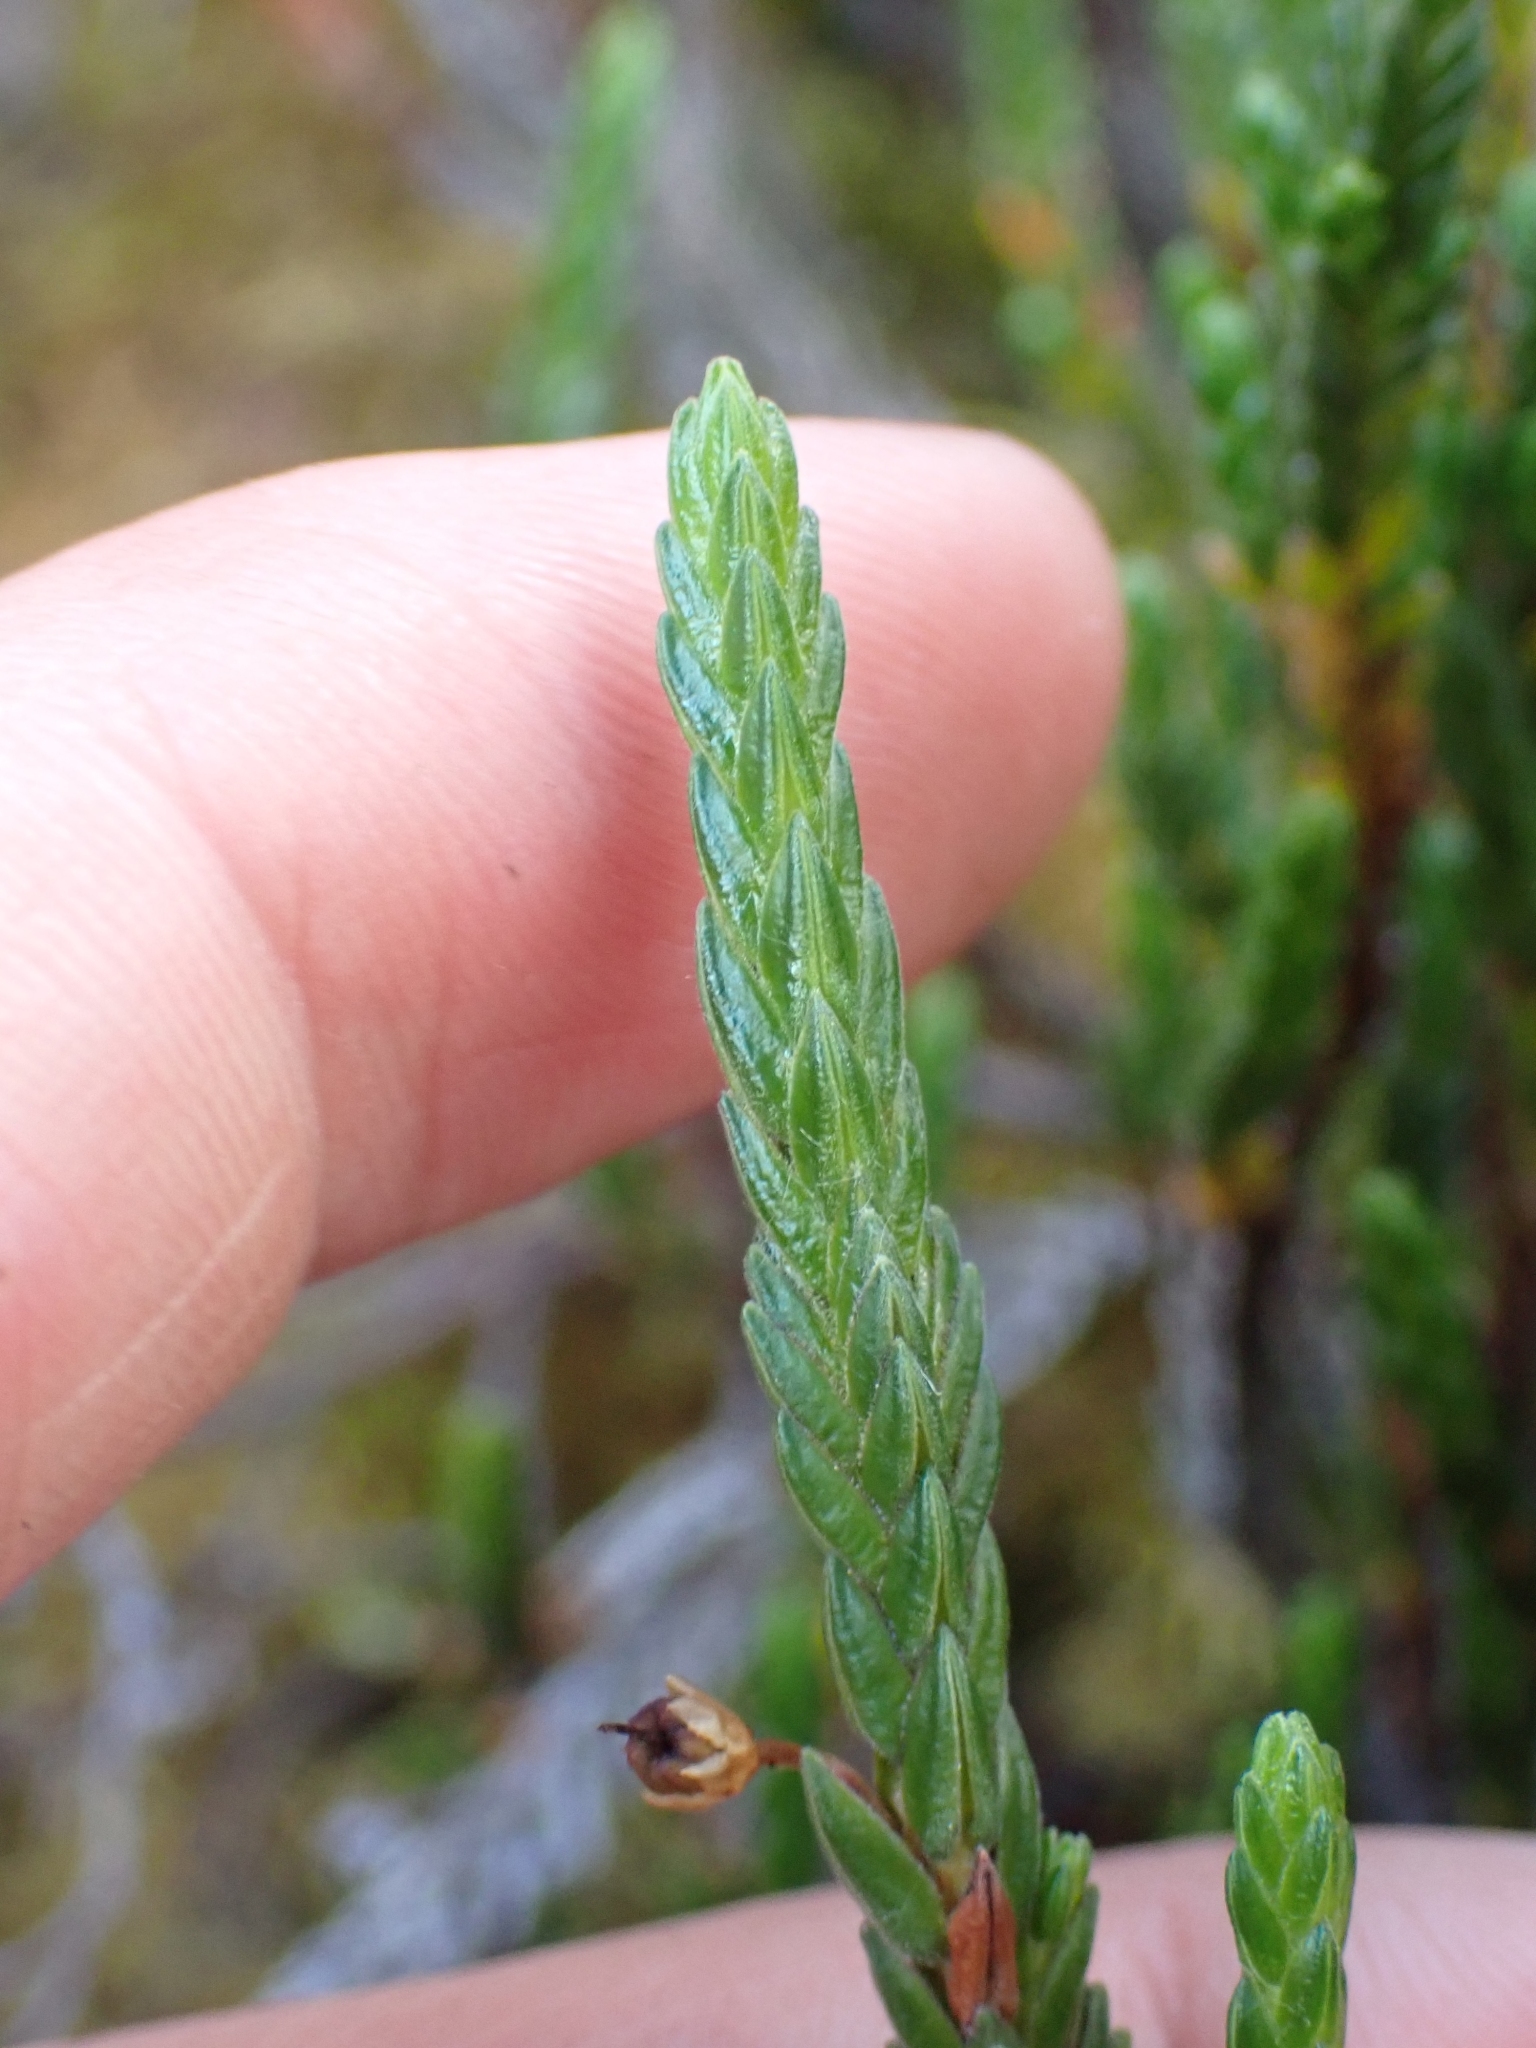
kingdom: Plantae
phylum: Tracheophyta
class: Magnoliopsida
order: Ericales
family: Ericaceae
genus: Cassiope
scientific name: Cassiope tetragona
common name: Arctic bell heather
